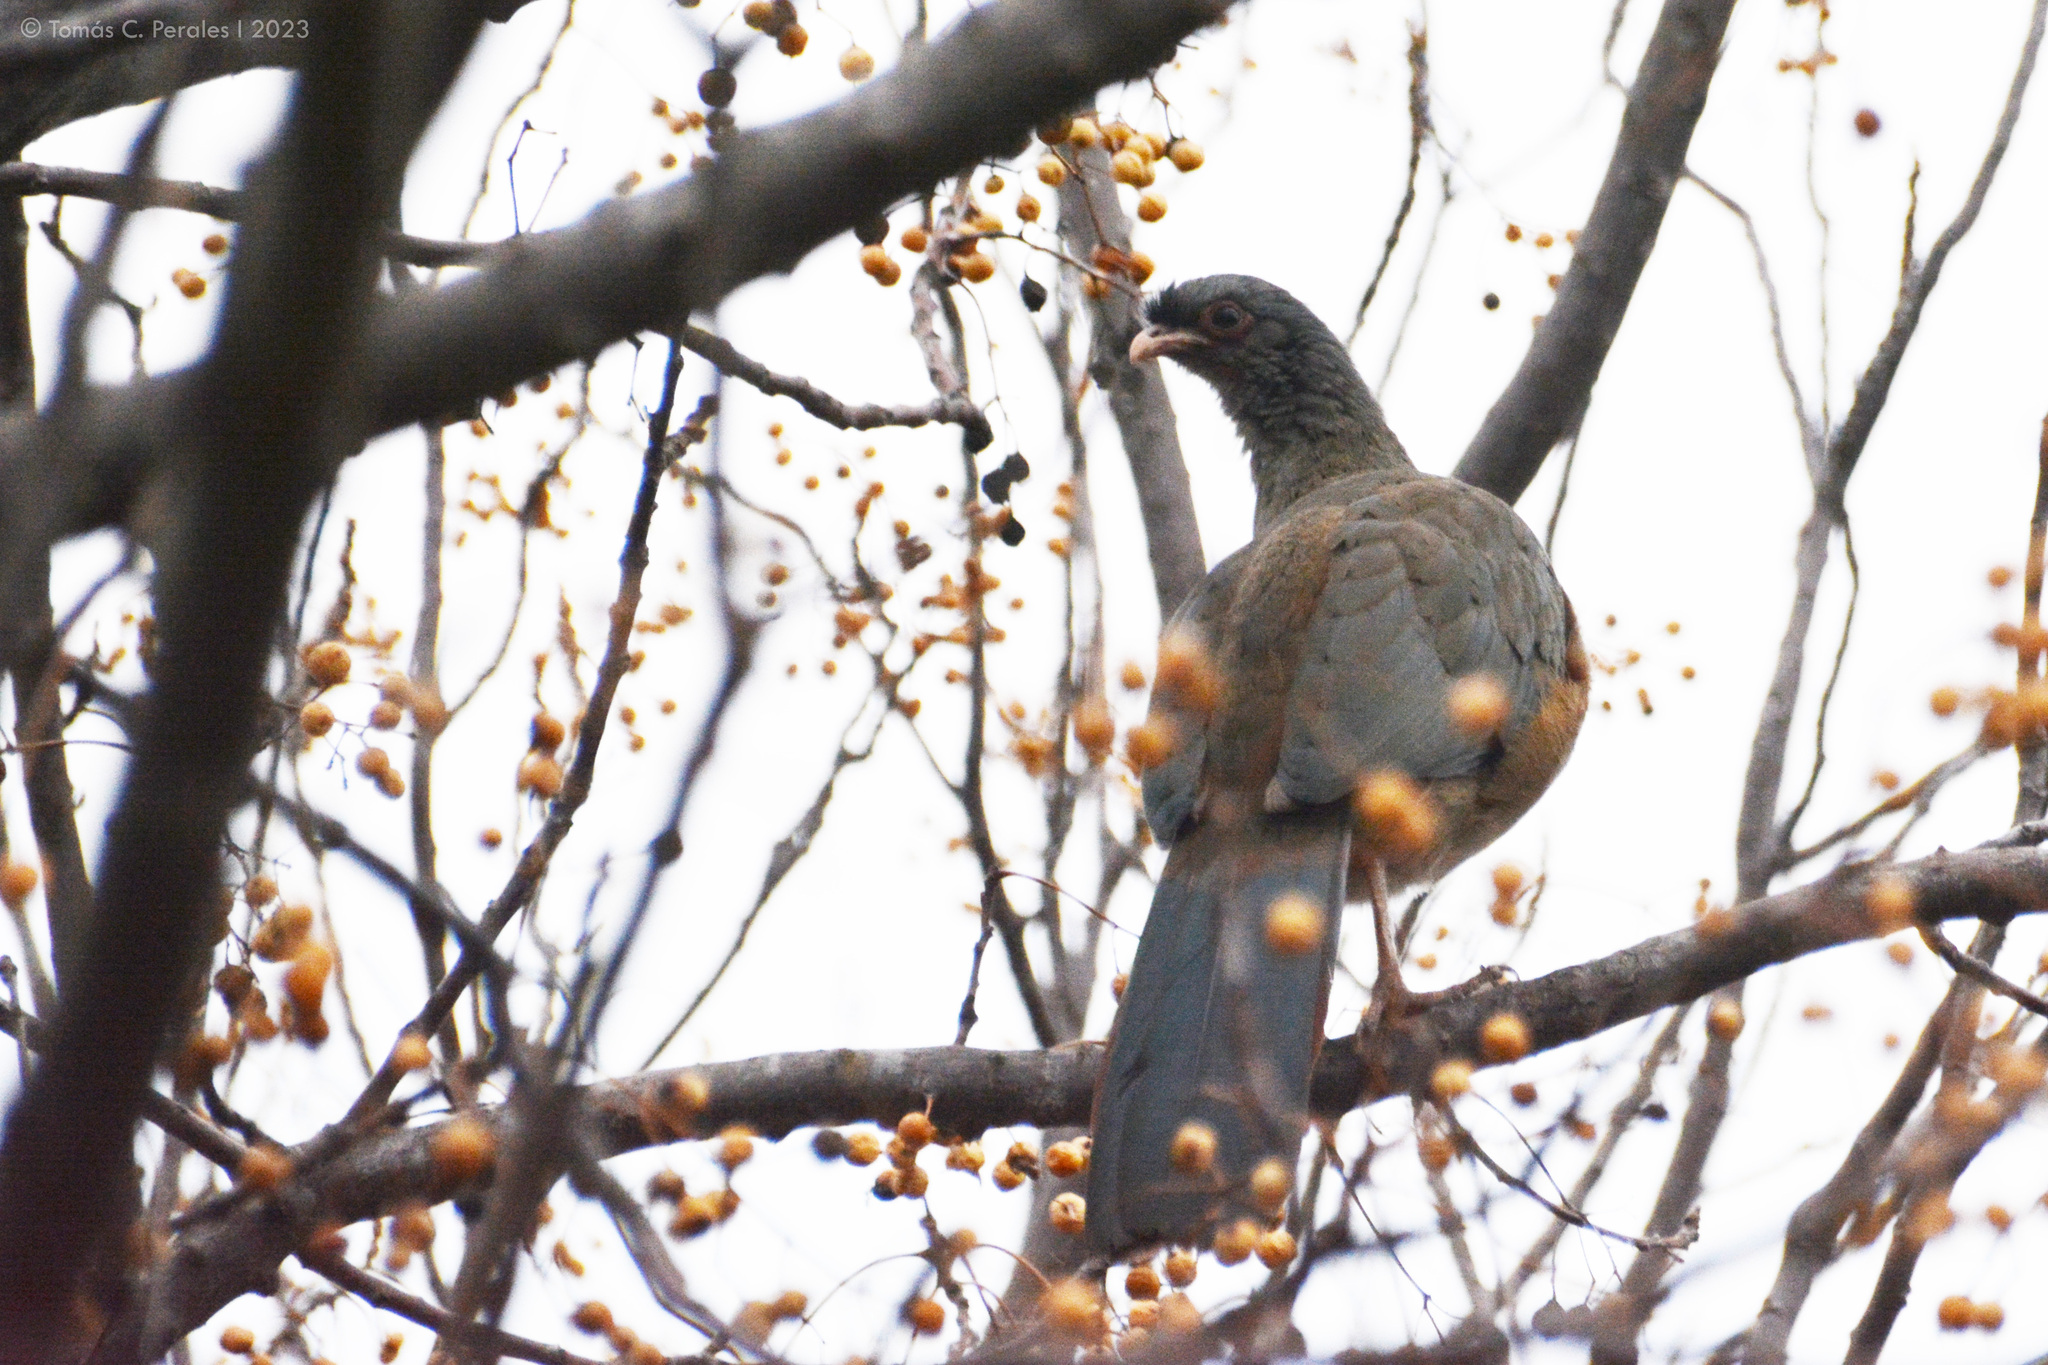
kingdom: Animalia
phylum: Chordata
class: Aves
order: Galliformes
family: Cracidae
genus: Ortalis
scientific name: Ortalis canicollis
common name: Chaco chachalaca
